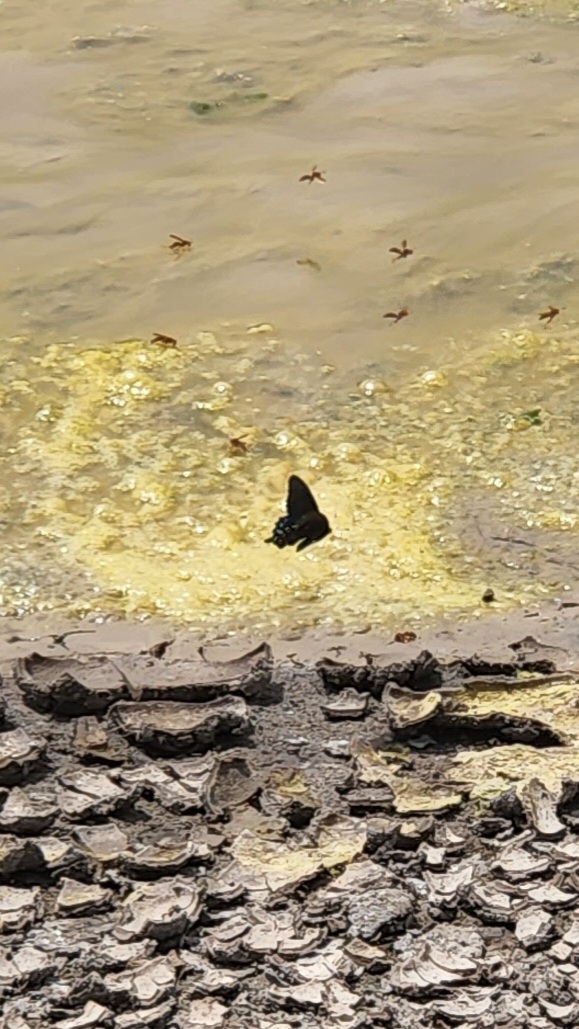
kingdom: Animalia
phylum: Arthropoda
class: Insecta
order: Lepidoptera
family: Papilionidae
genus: Battus
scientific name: Battus philenor
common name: Pipevine swallowtail
